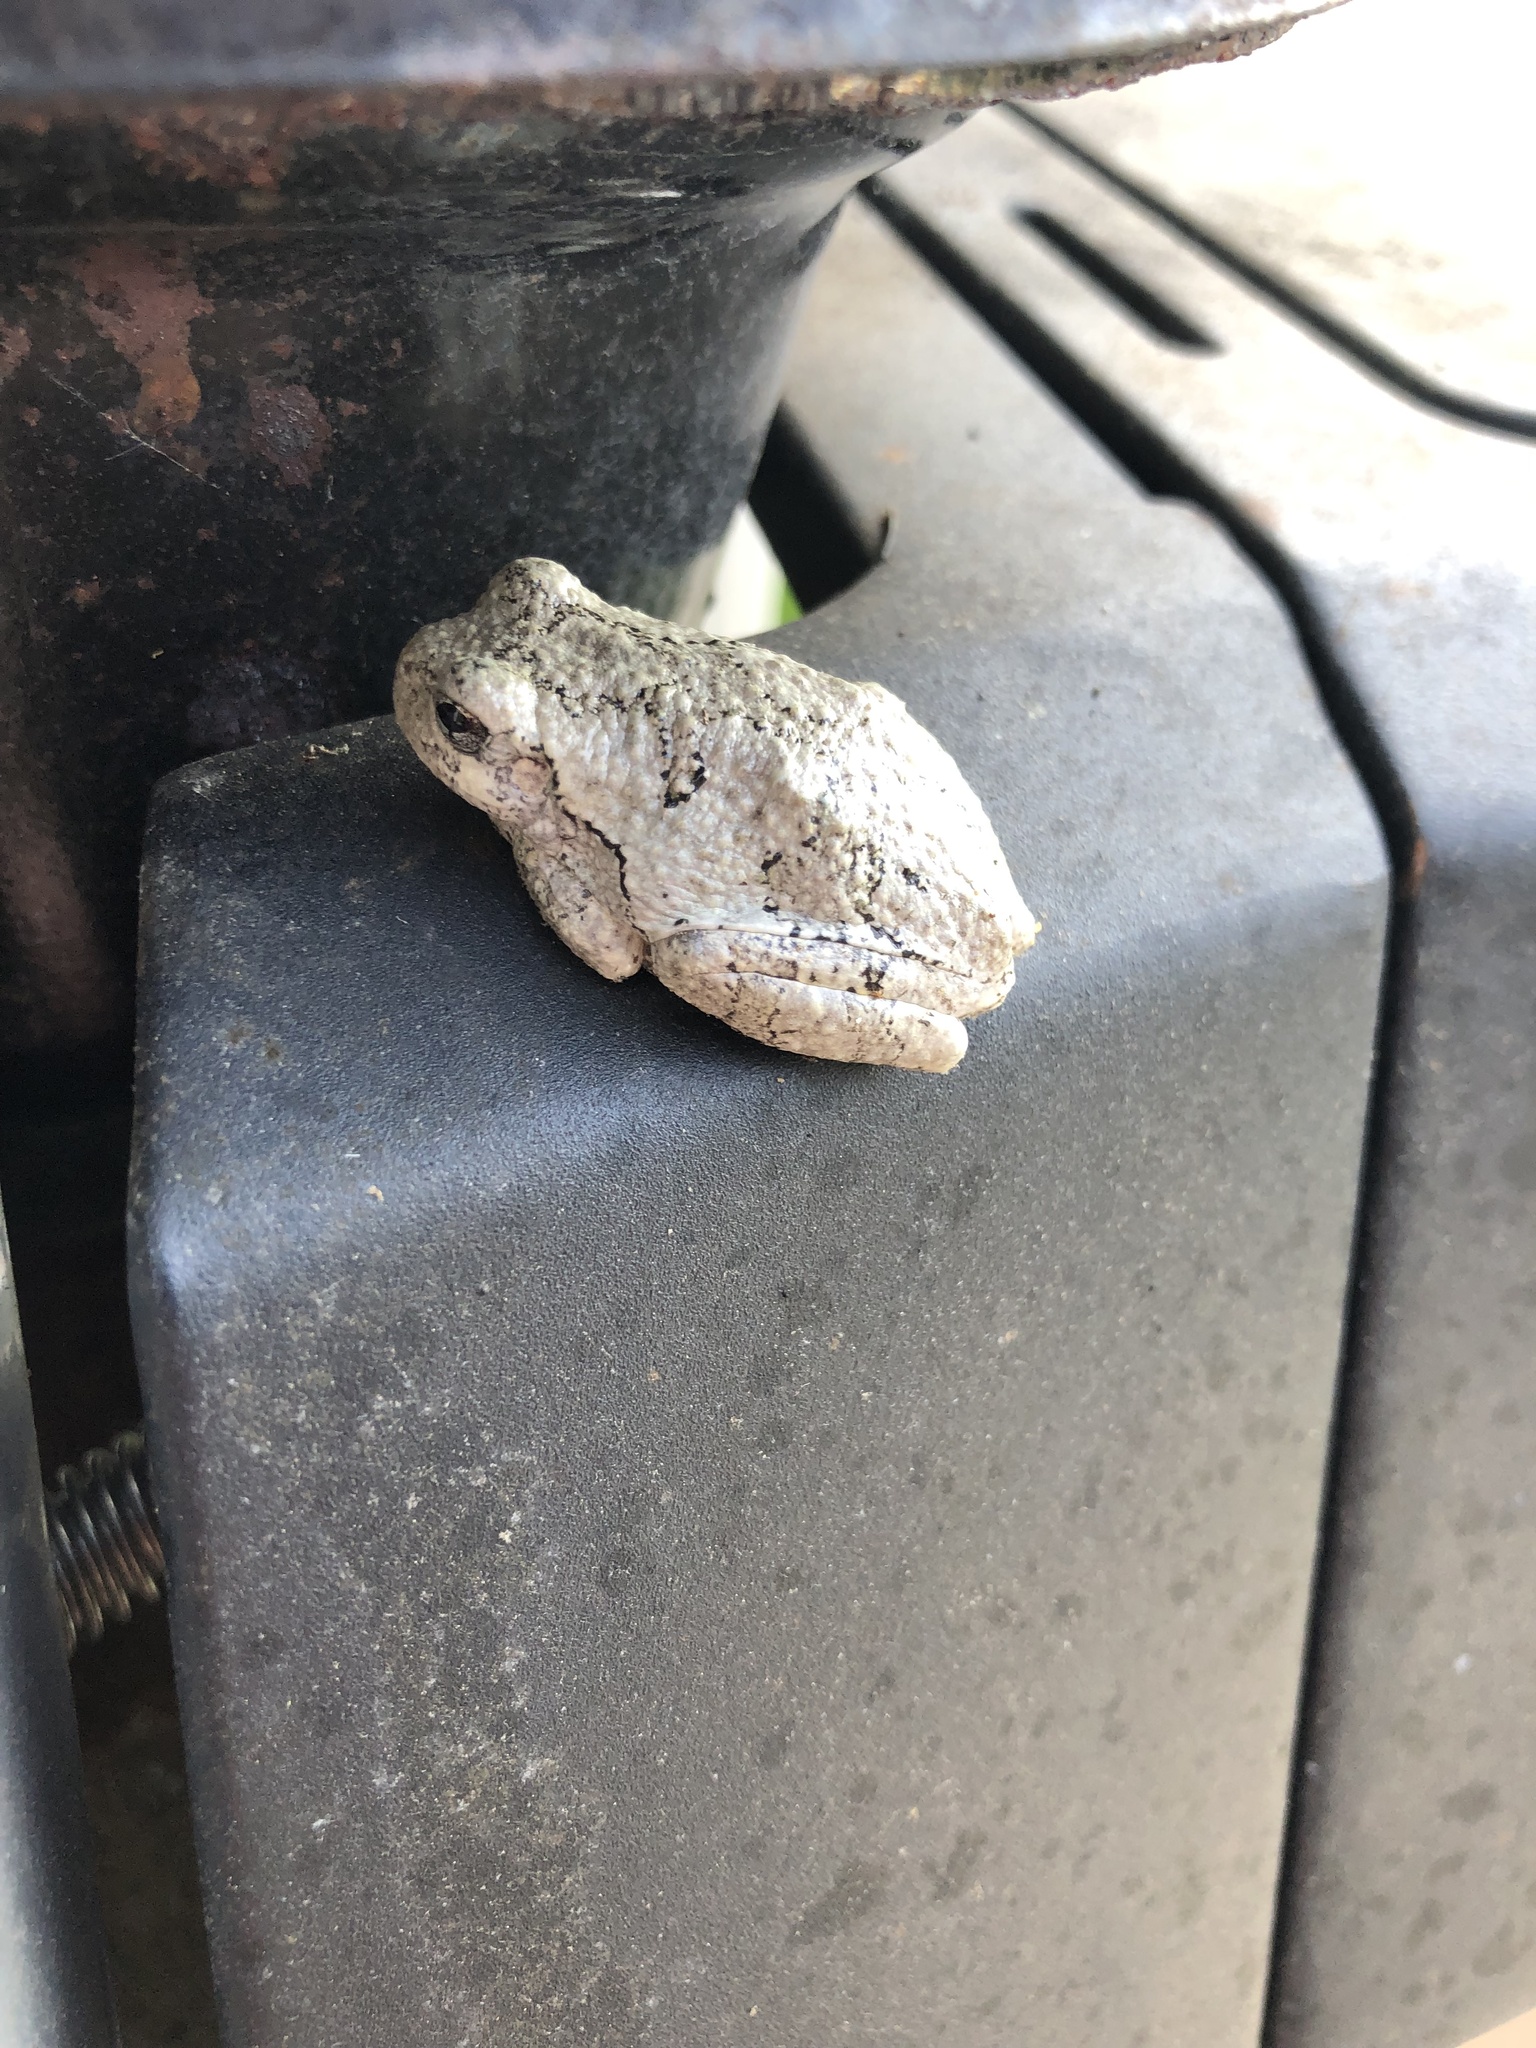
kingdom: Animalia
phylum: Chordata
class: Amphibia
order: Anura
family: Hylidae
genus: Dryophytes
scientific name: Dryophytes versicolor
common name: Gray treefrog
